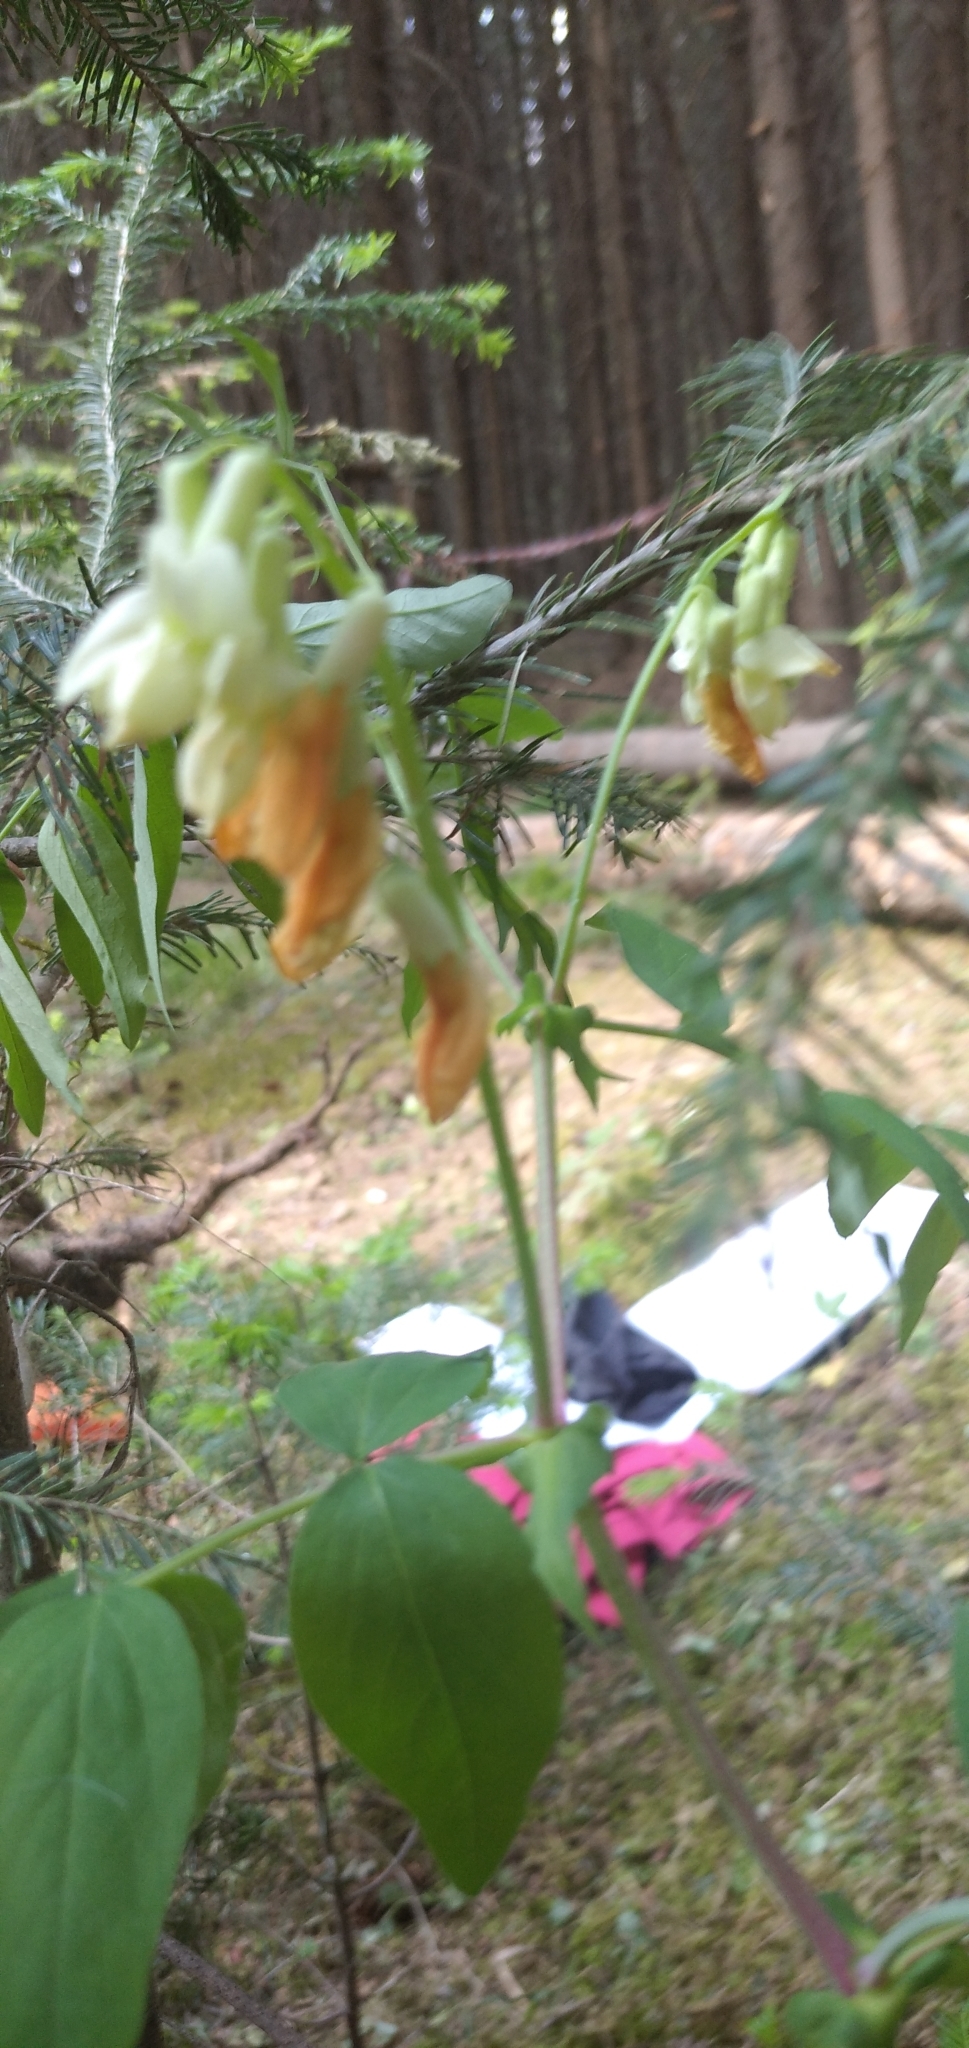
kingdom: Plantae
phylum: Tracheophyta
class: Magnoliopsida
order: Fabales
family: Fabaceae
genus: Lathyrus
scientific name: Lathyrus gmelinii
